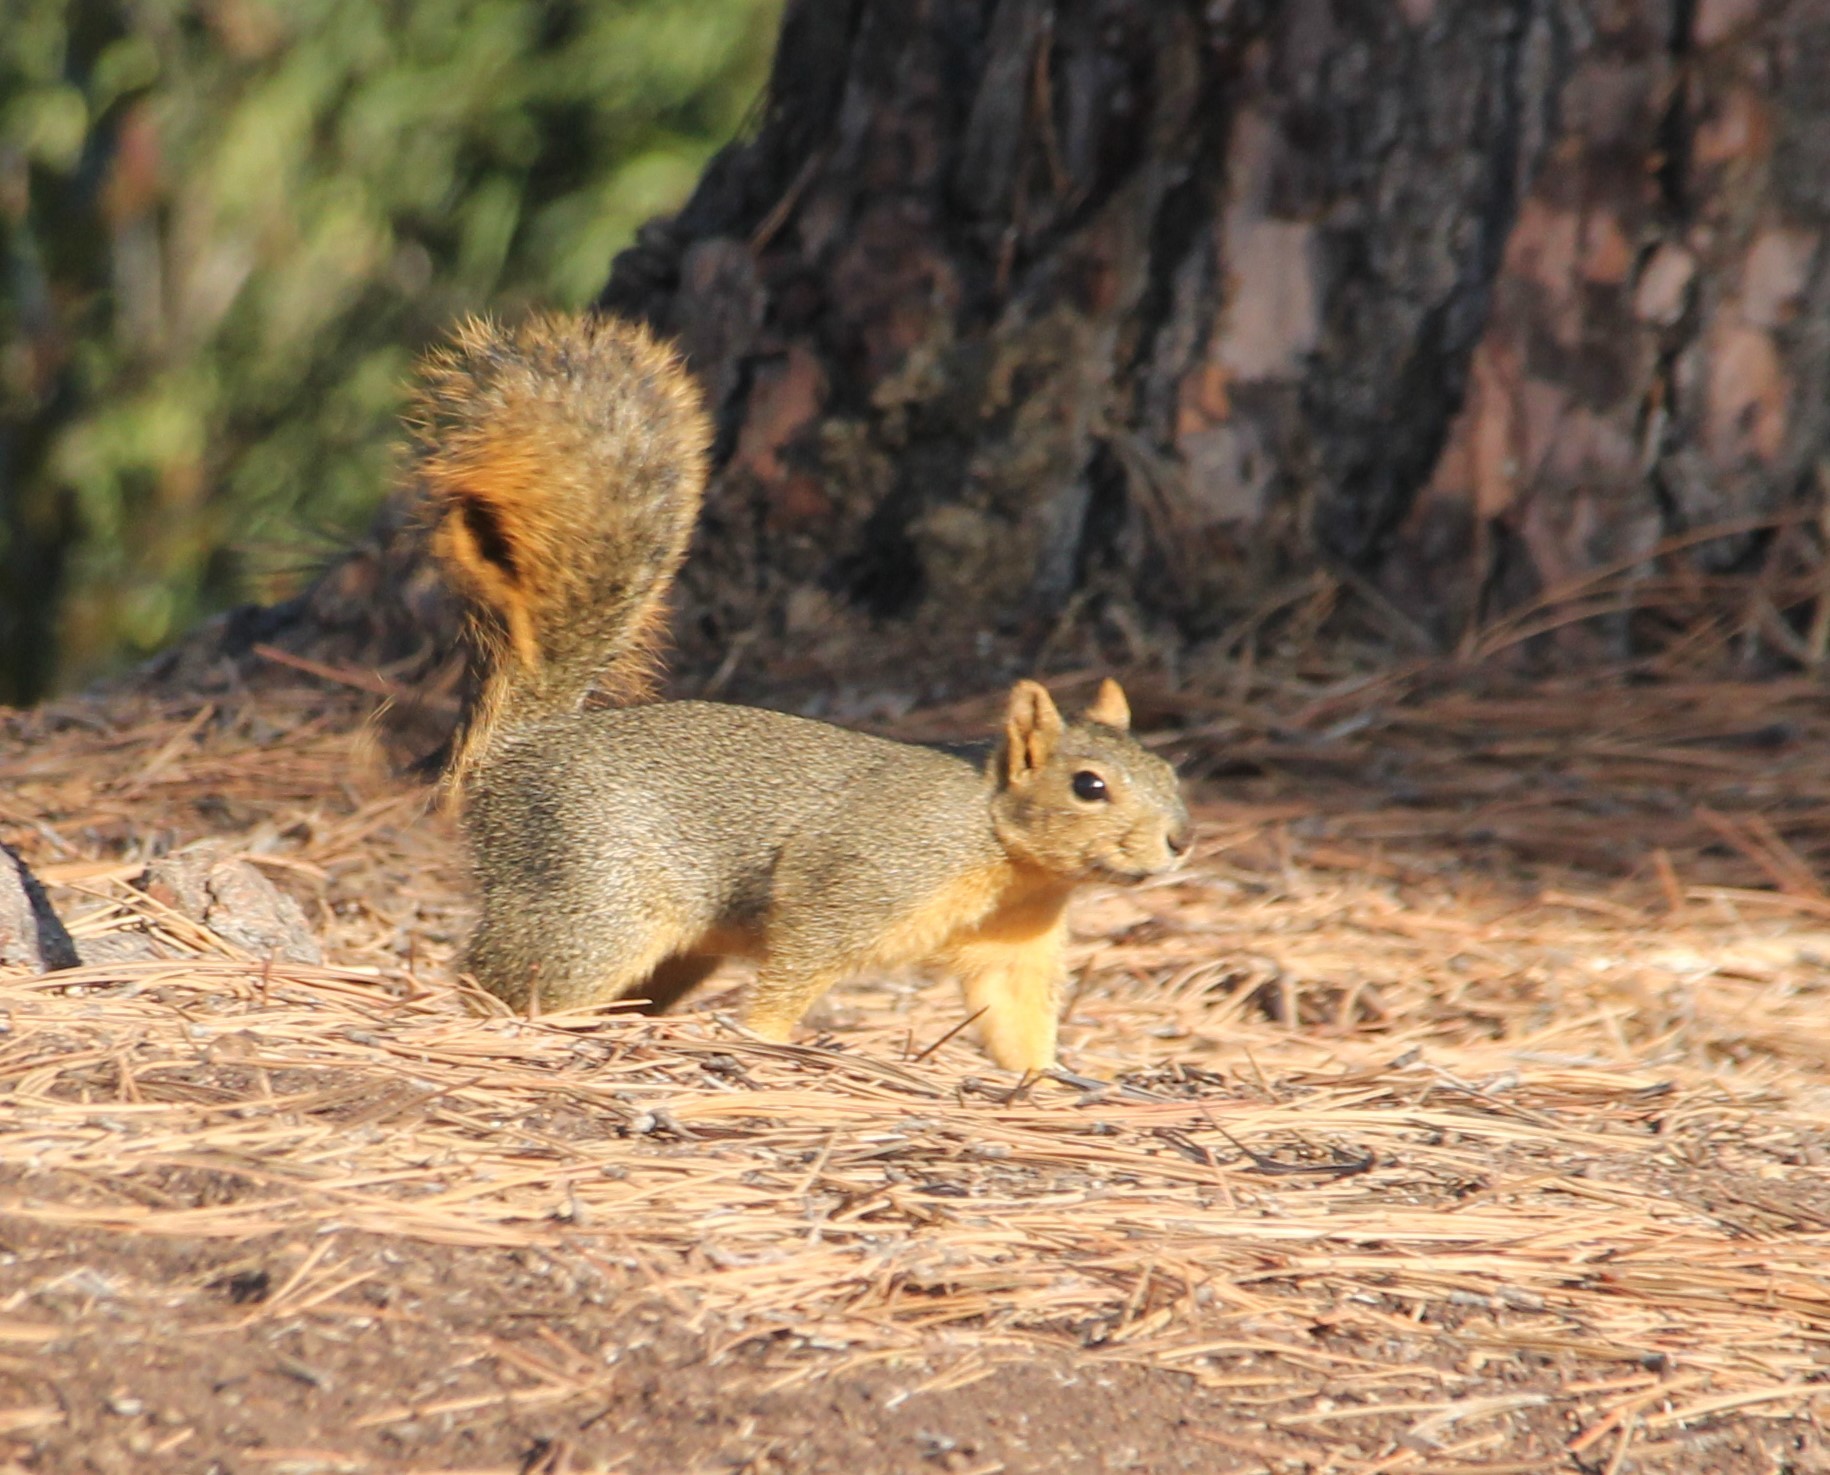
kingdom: Animalia
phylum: Chordata
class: Mammalia
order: Rodentia
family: Sciuridae
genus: Sciurus
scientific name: Sciurus niger
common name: Fox squirrel
